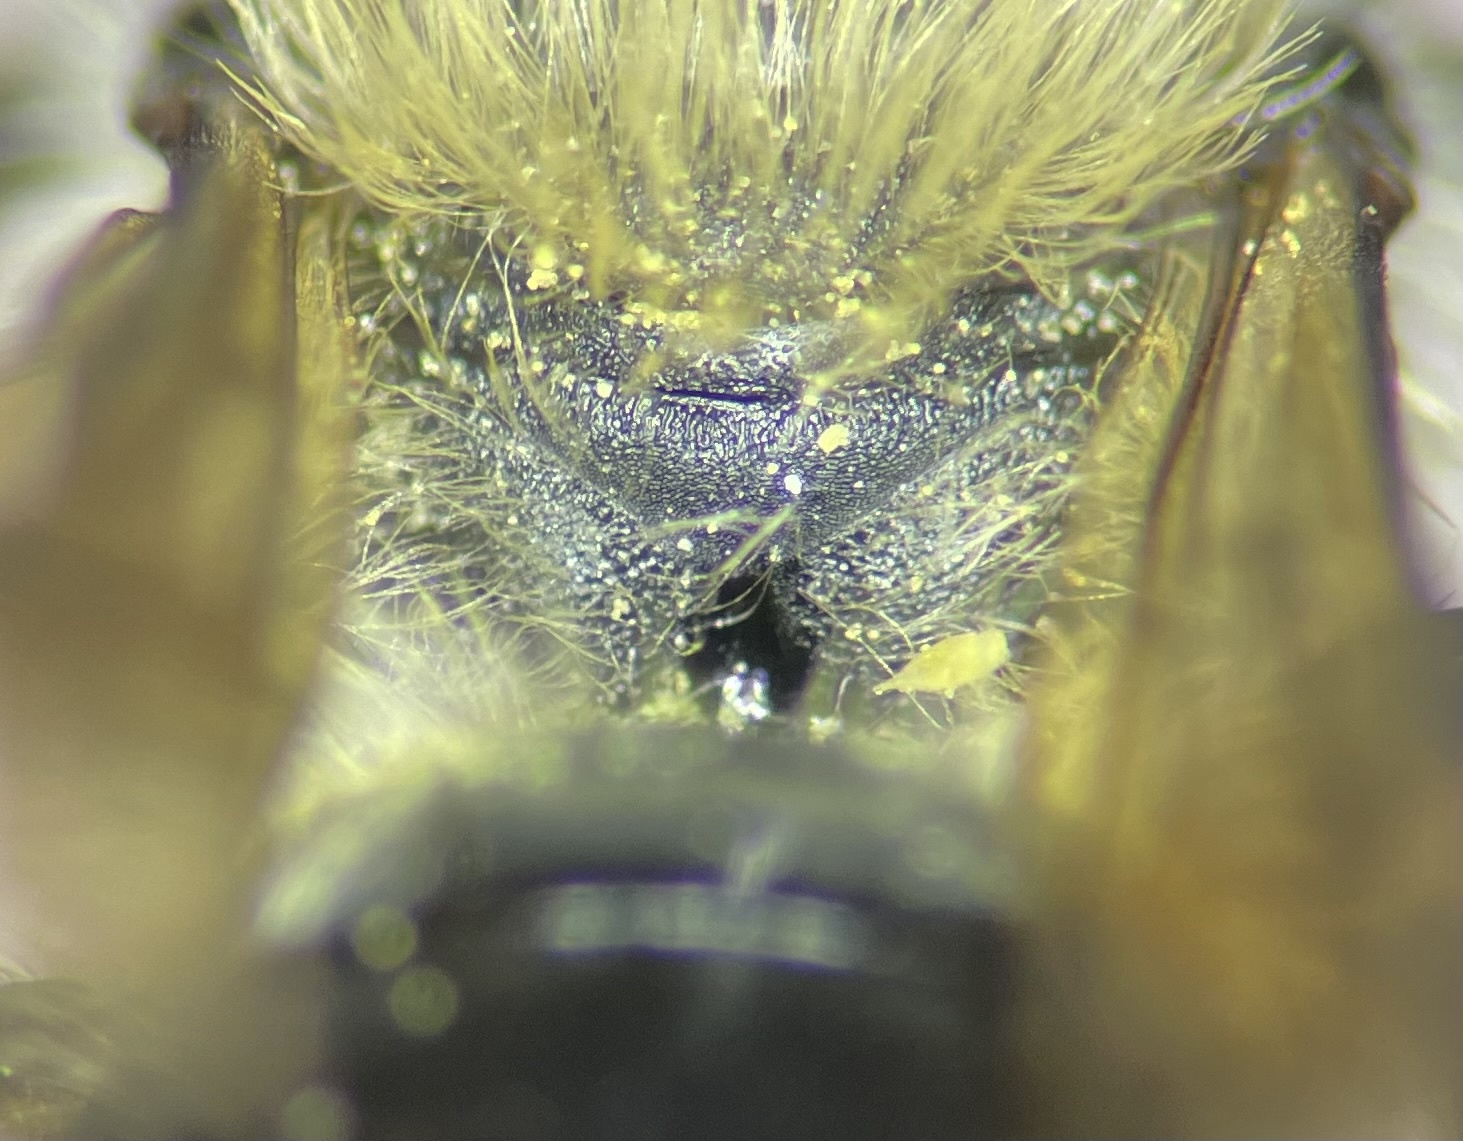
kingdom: Animalia
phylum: Arthropoda
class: Insecta
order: Hymenoptera
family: Megachilidae
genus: Osmia
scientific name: Osmia laticeps
